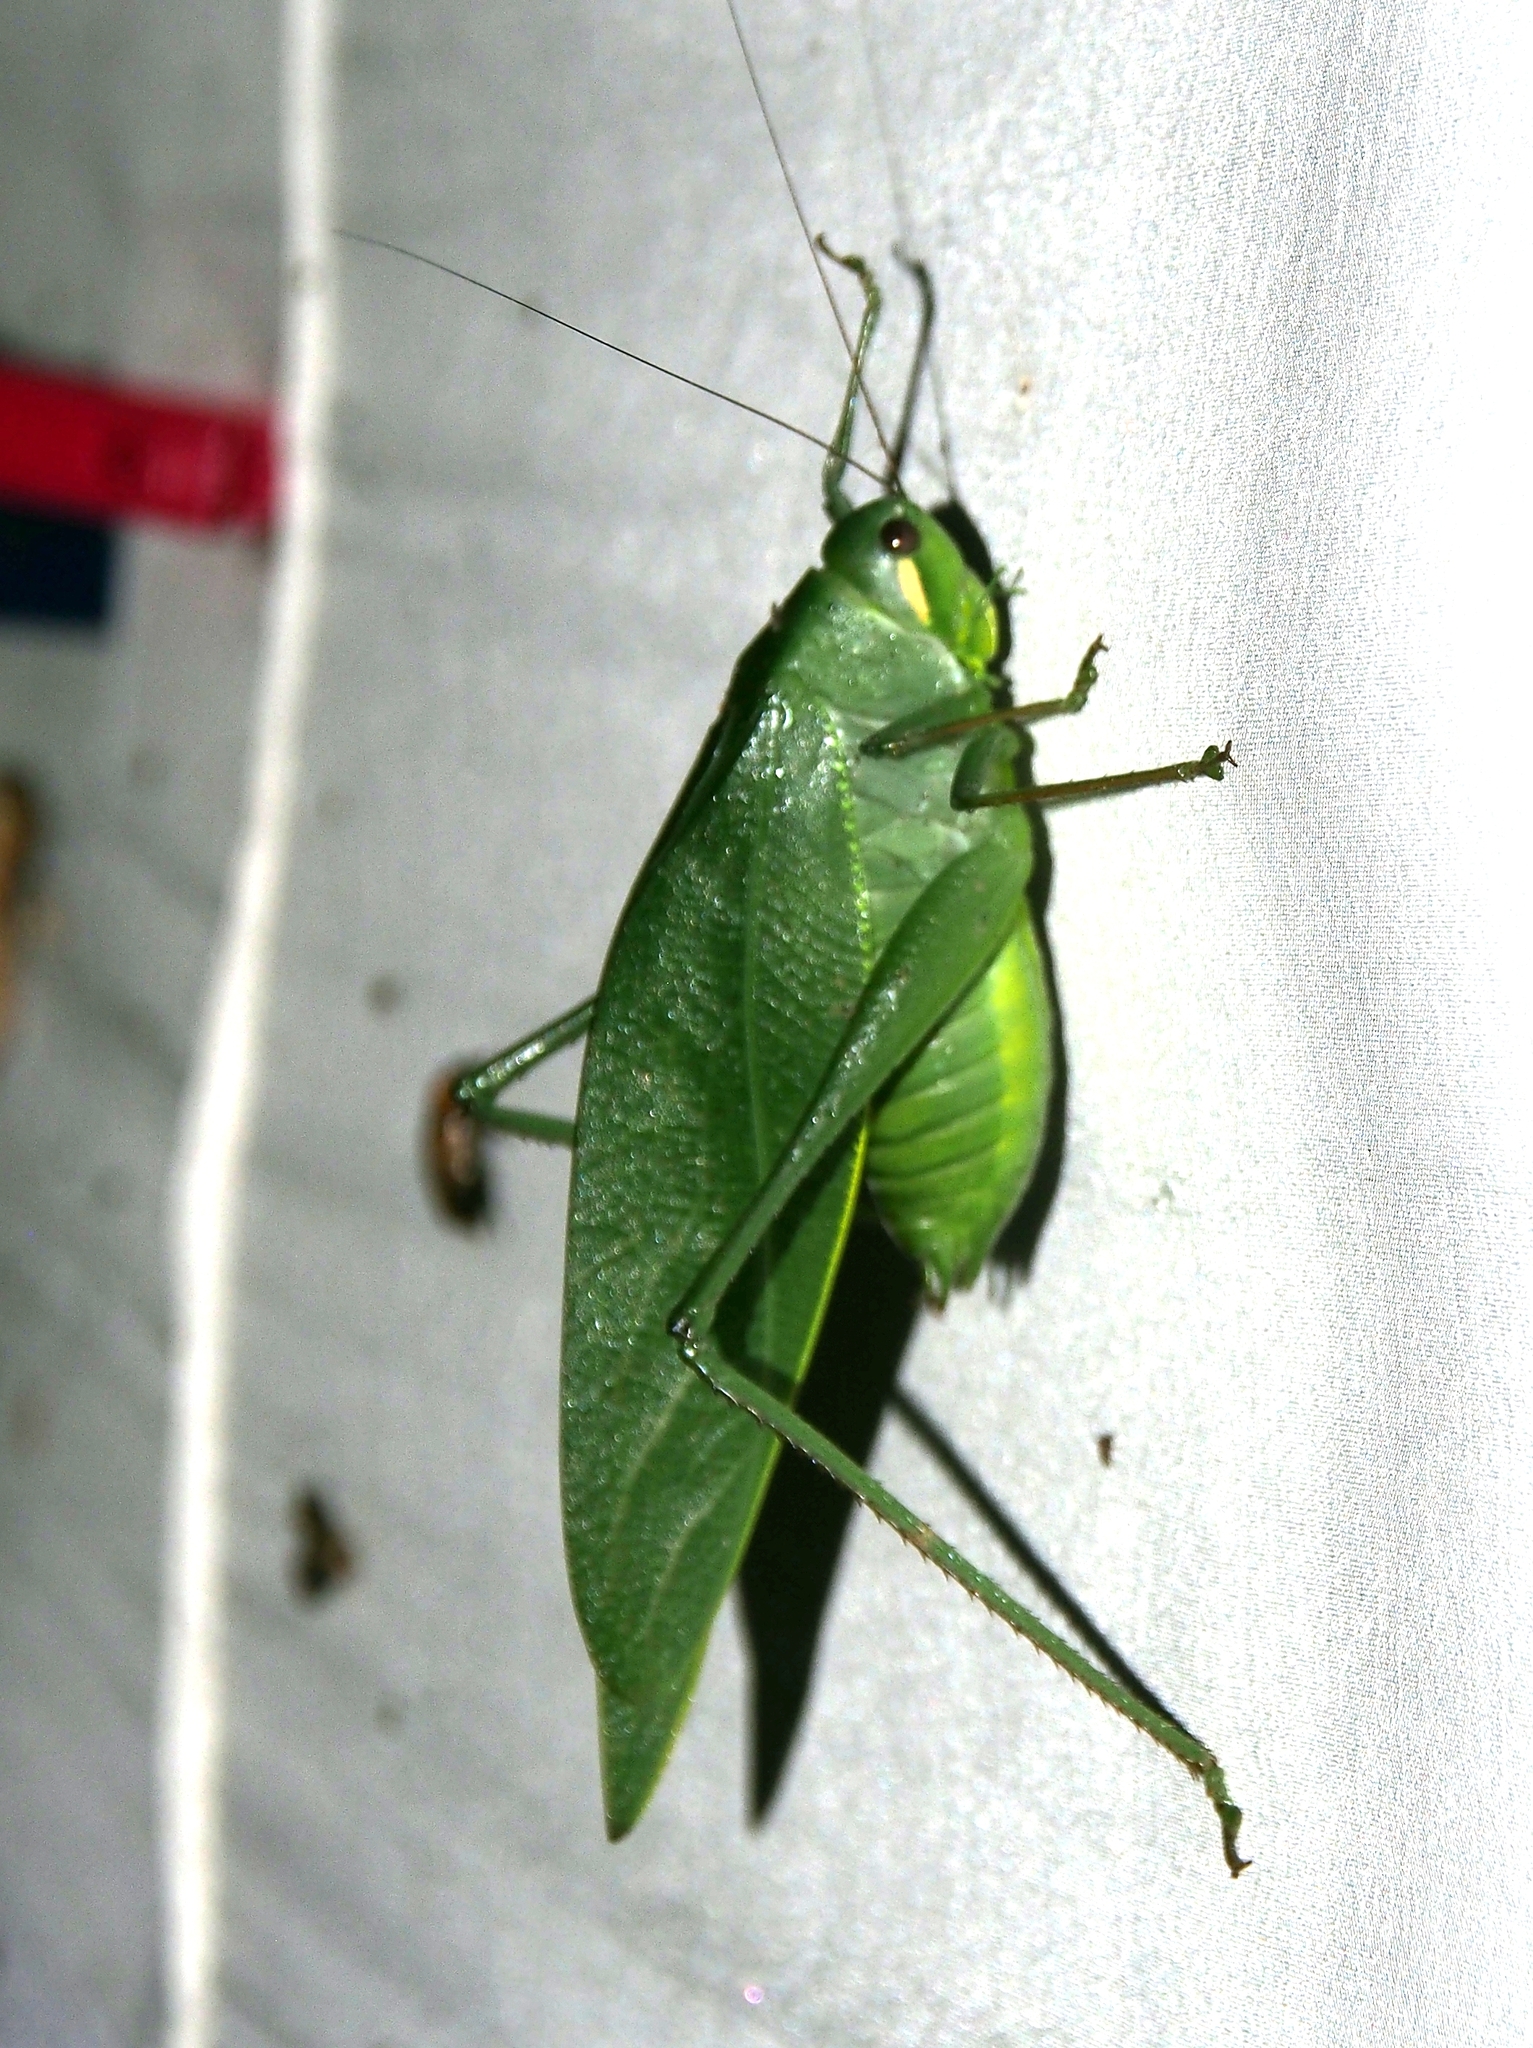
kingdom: Animalia
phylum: Arthropoda
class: Insecta
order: Orthoptera
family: Tettigoniidae
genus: Philophyllia
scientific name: Philophyllia ingens
